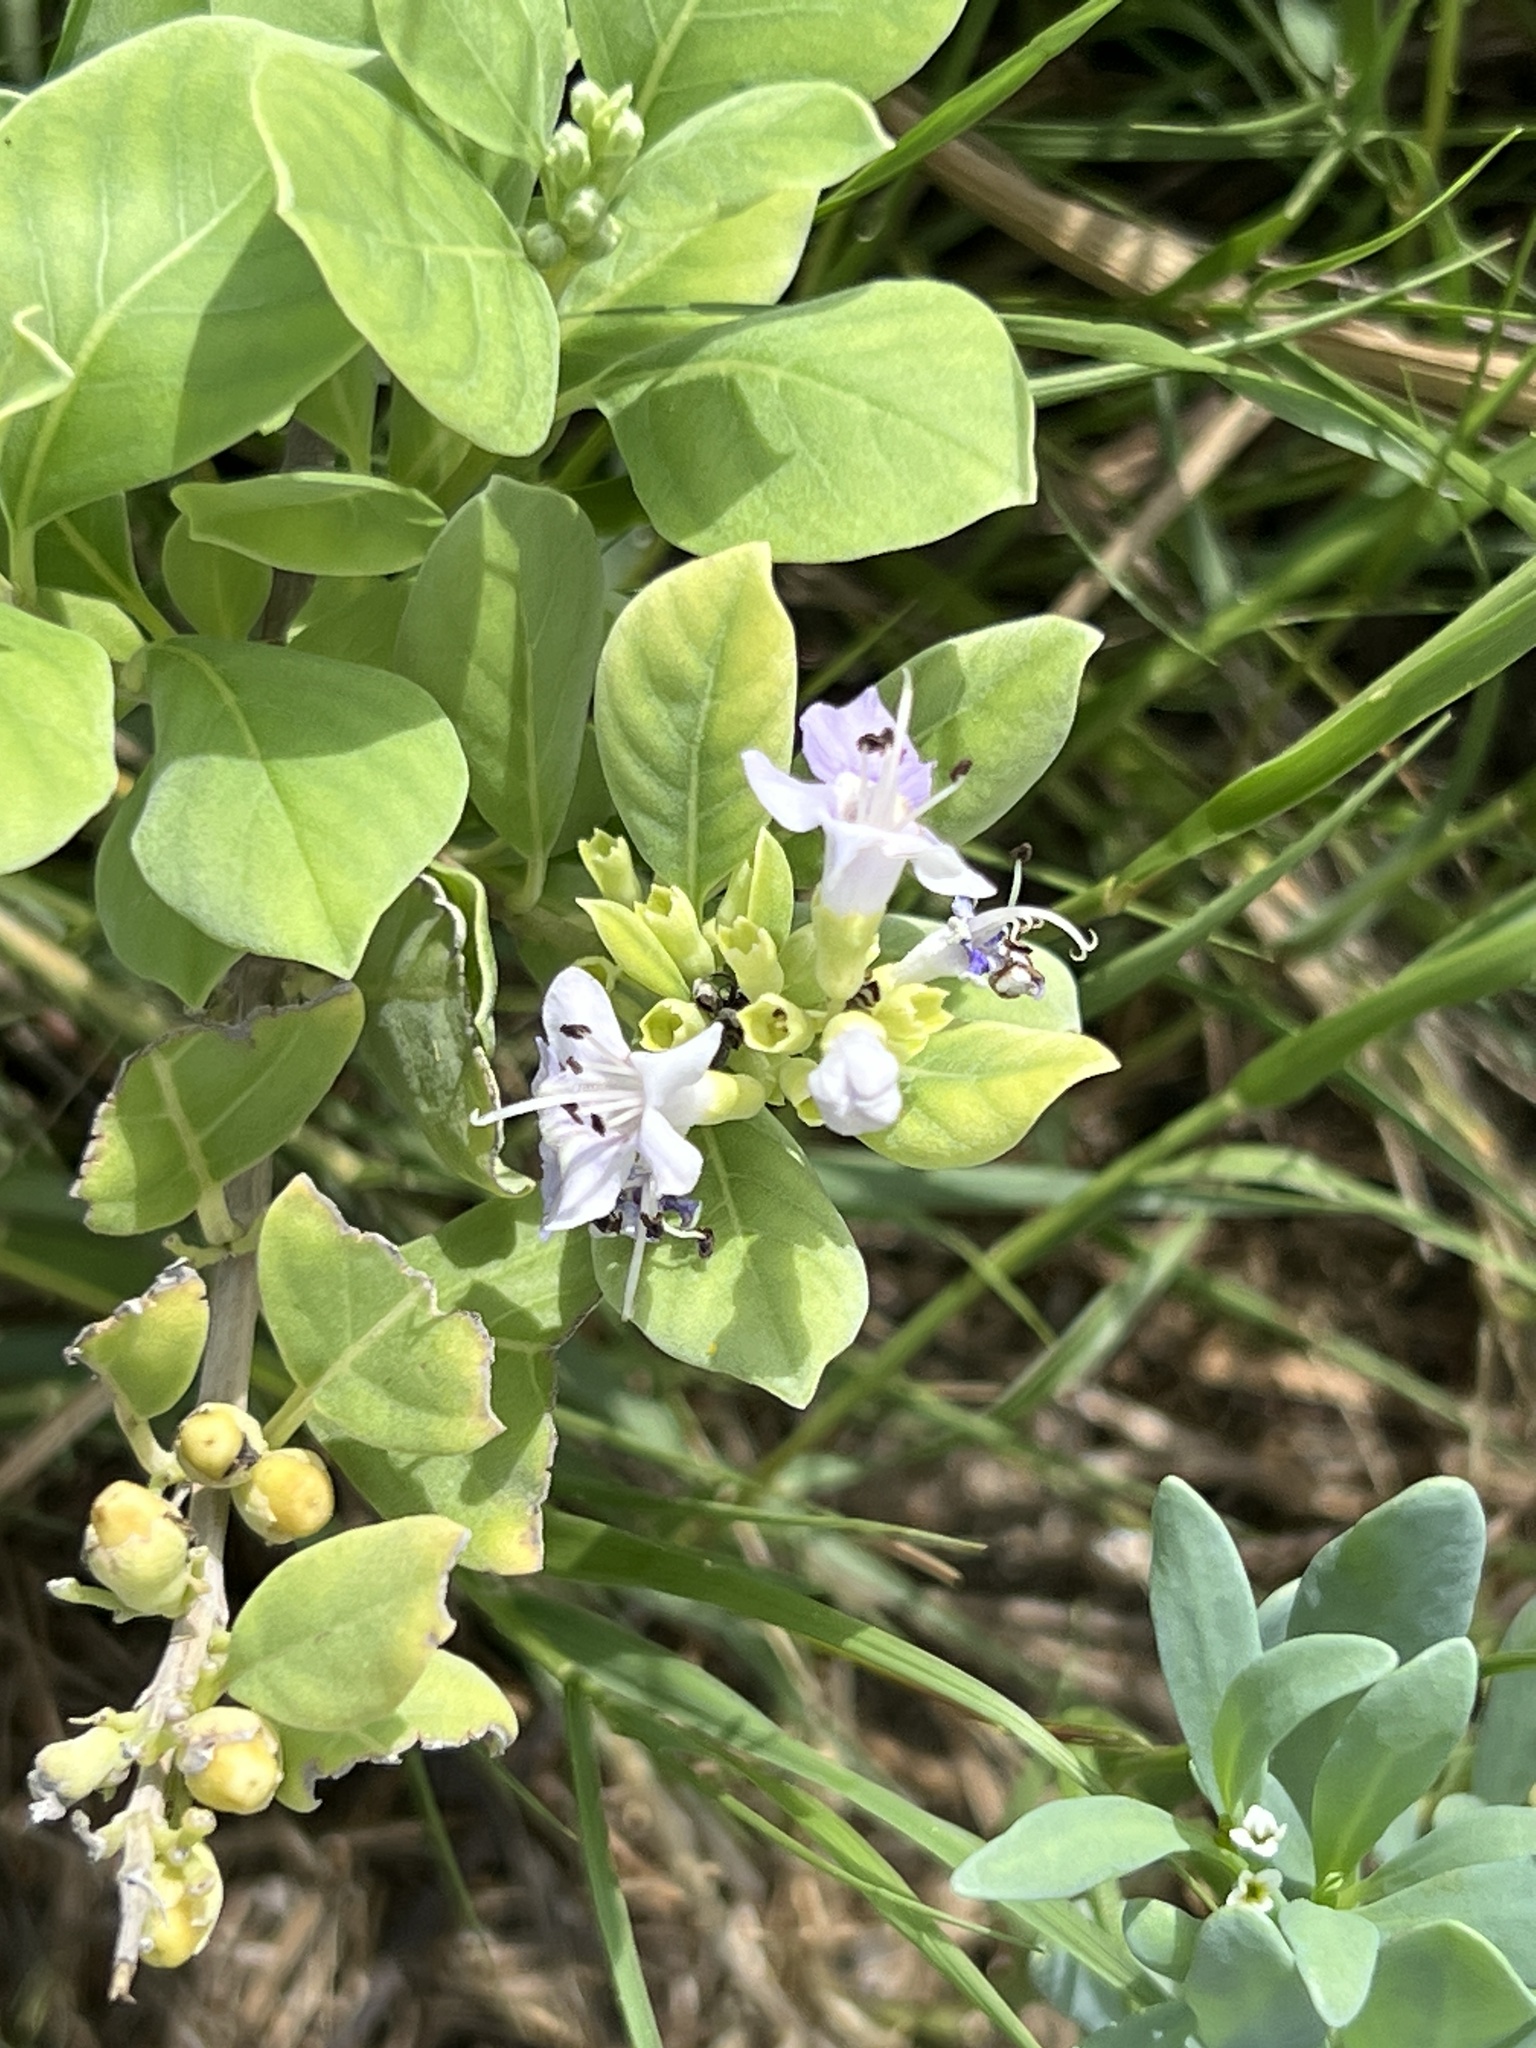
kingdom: Plantae
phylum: Tracheophyta
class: Magnoliopsida
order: Lamiales
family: Lamiaceae
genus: Vitex
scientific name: Vitex rotundifolia
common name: Beach vitex
